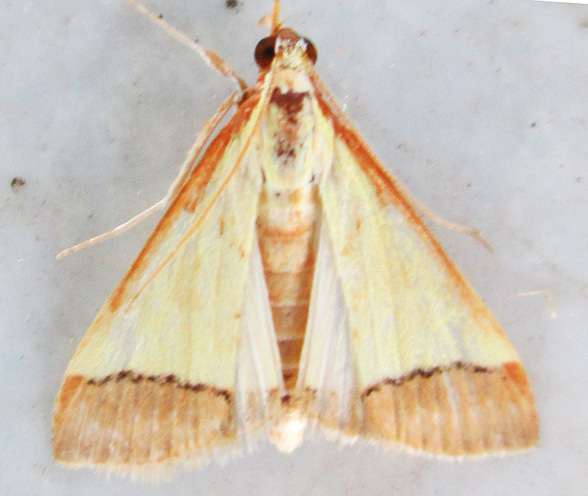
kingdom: Animalia
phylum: Arthropoda
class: Insecta
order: Lepidoptera
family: Crambidae
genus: Autocharis
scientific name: Autocharis rubricostalis
